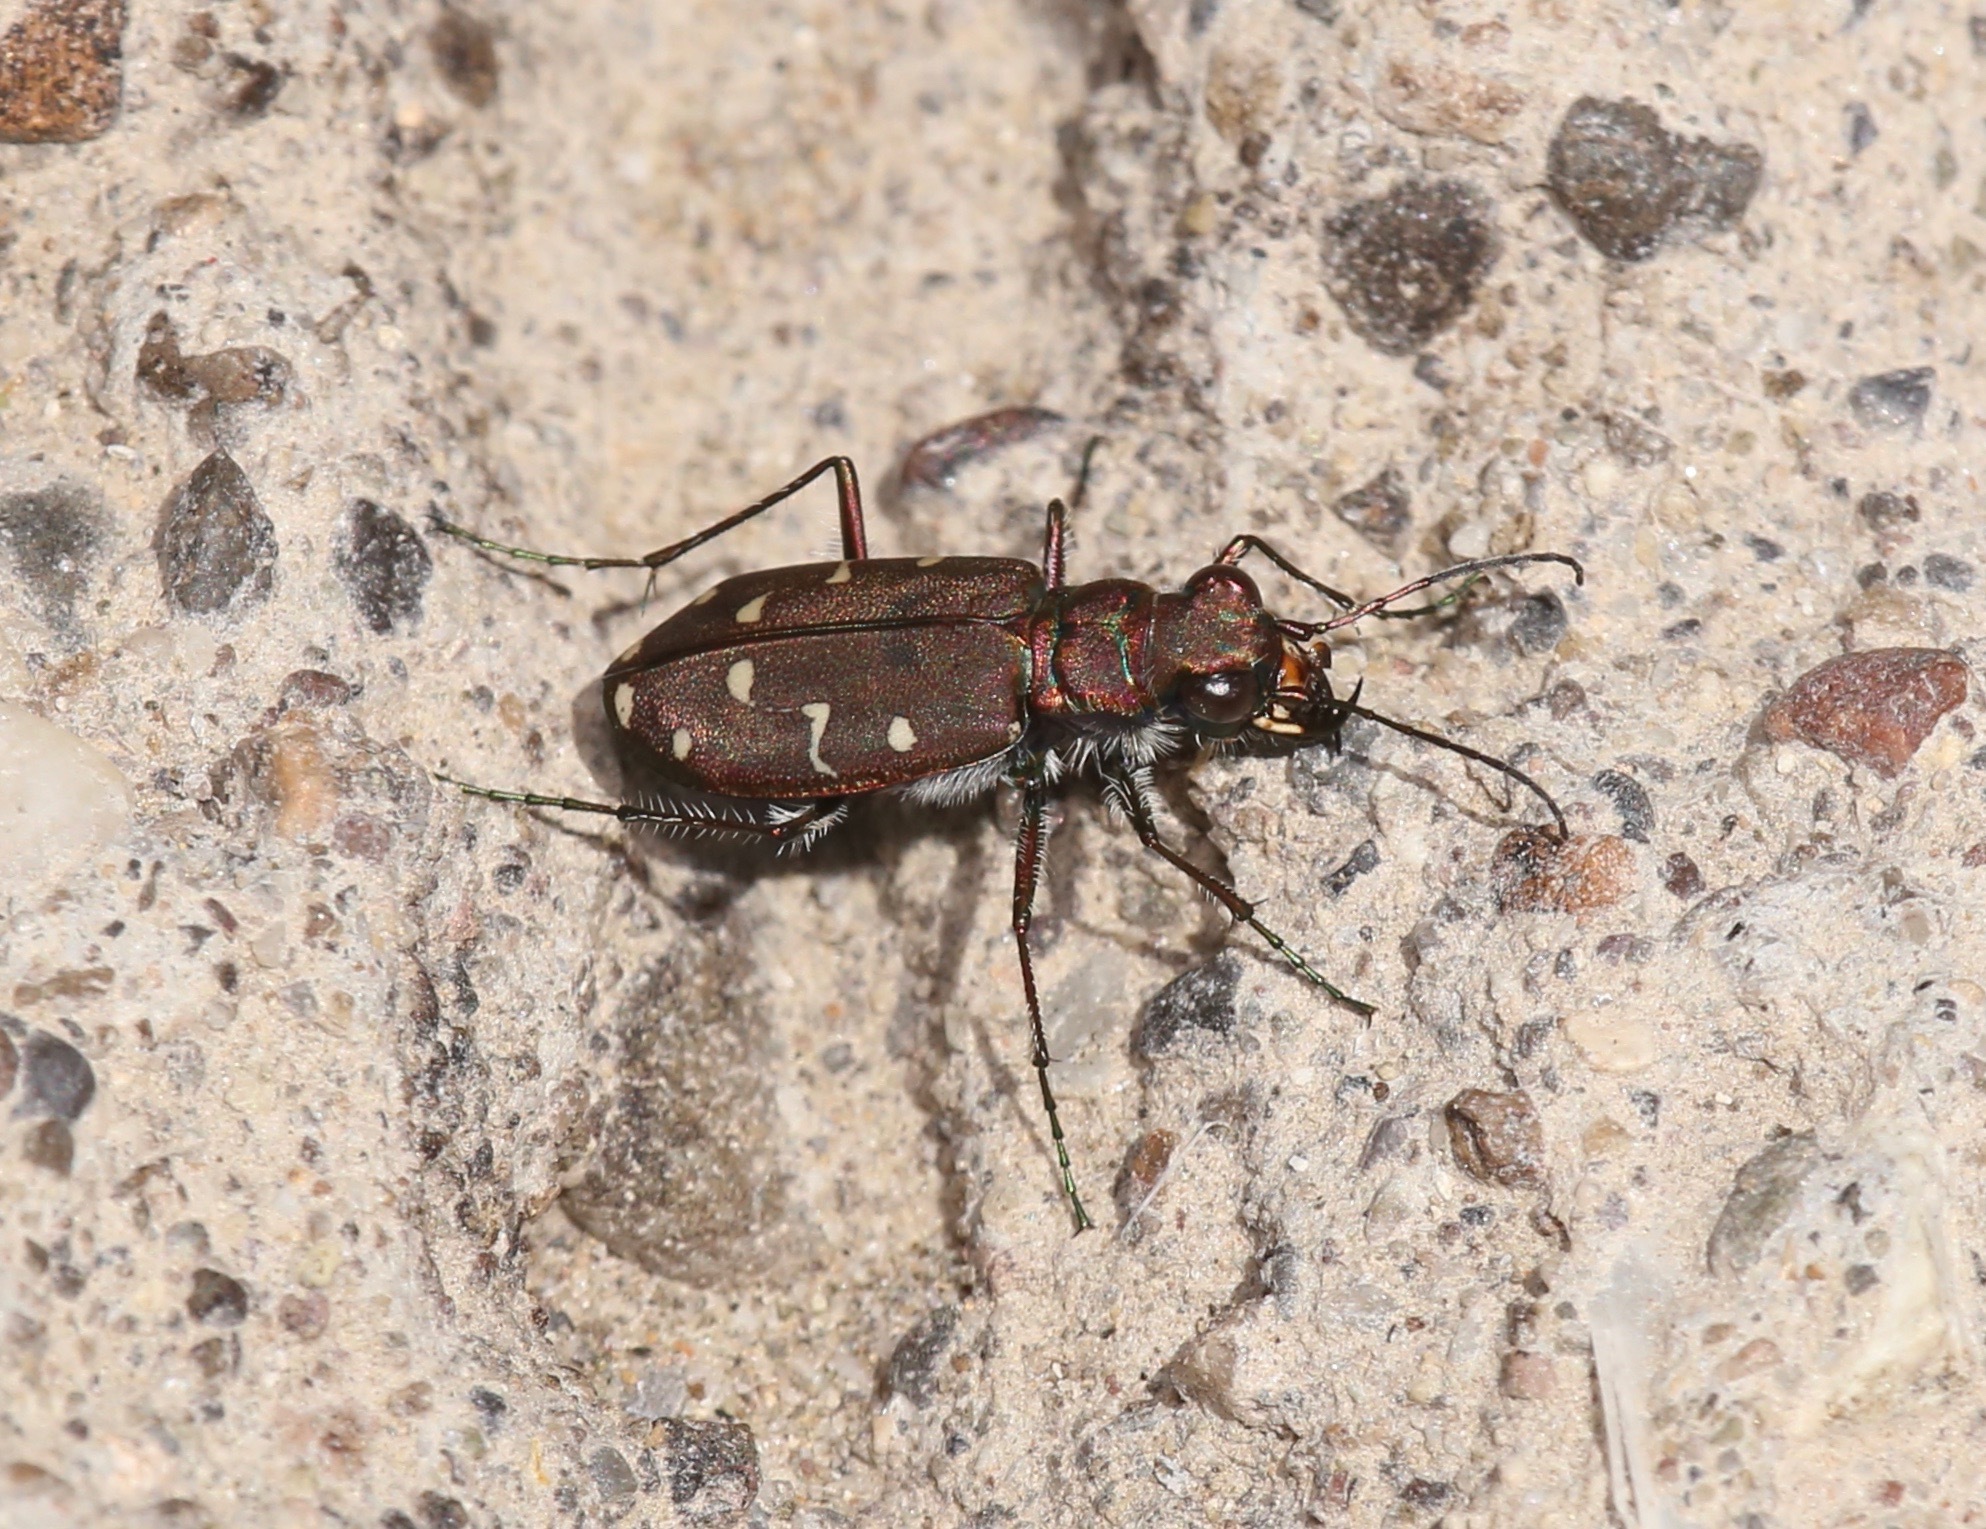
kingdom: Animalia
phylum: Arthropoda
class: Insecta
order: Coleoptera
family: Carabidae
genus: Cicindela
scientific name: Cicindela oregona
